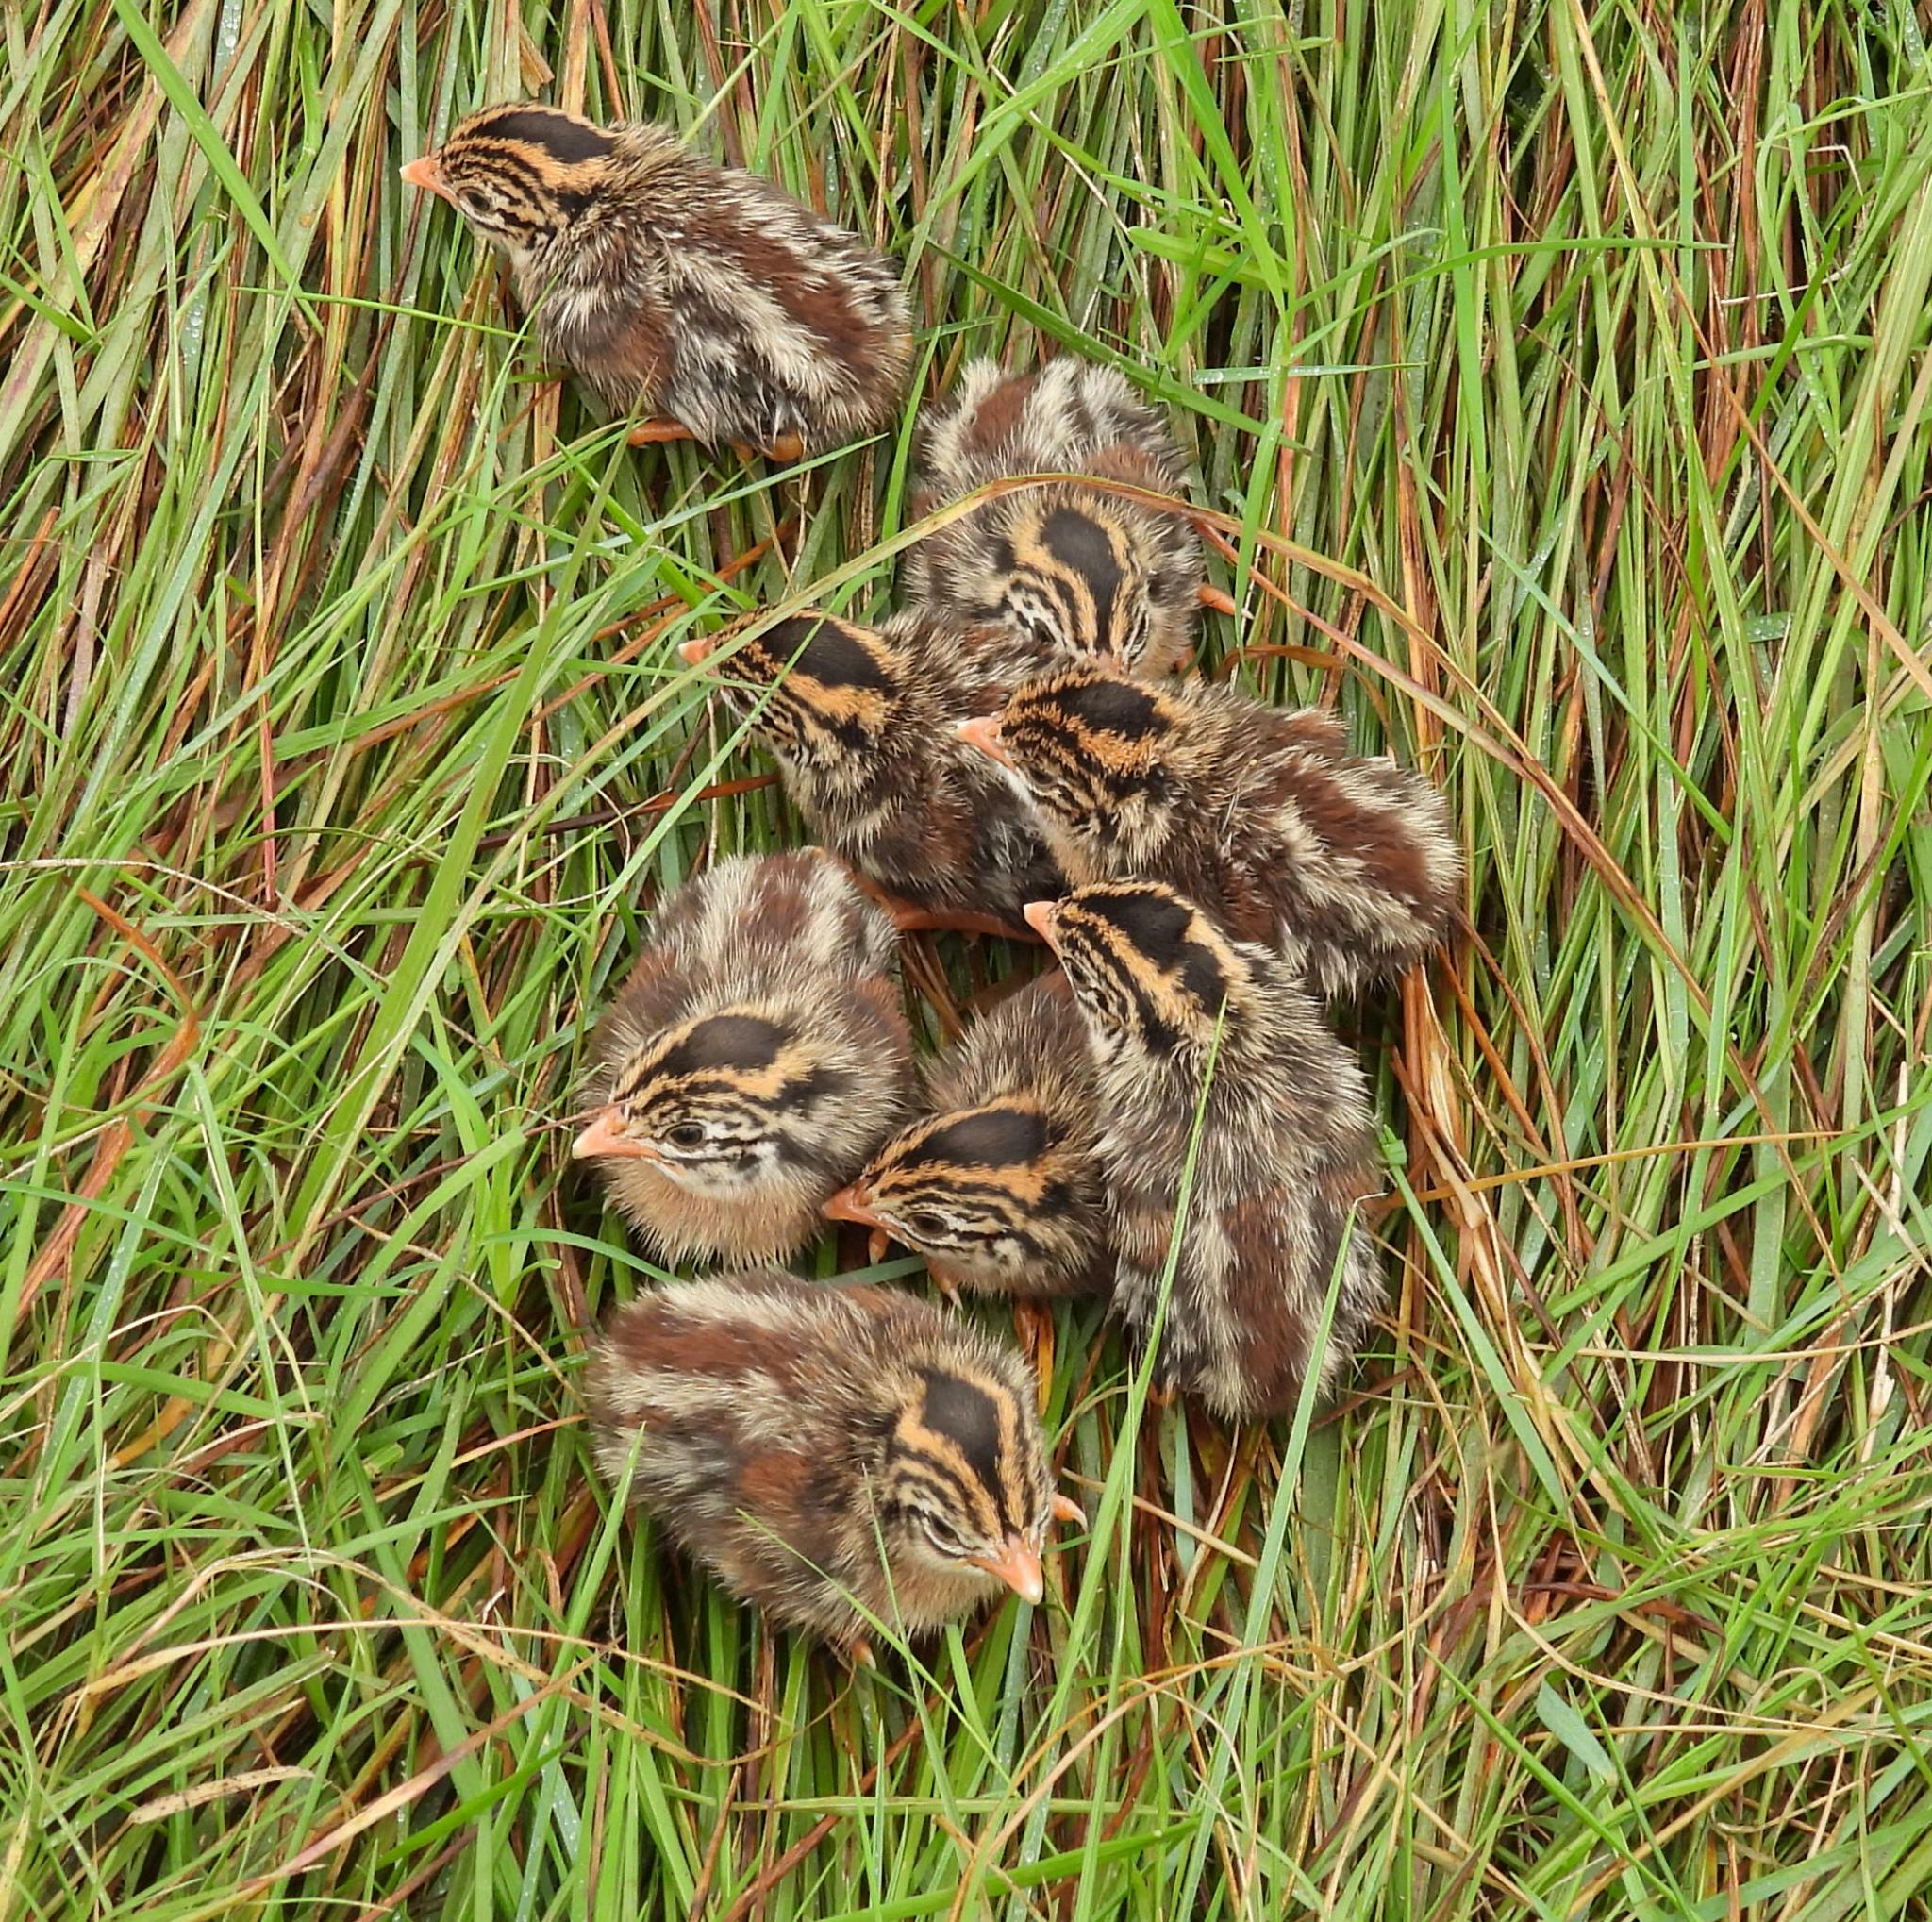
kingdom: Animalia
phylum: Chordata
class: Aves
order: Galliformes
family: Numididae
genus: Numida
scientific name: Numida meleagris
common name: Helmeted guineafowl
